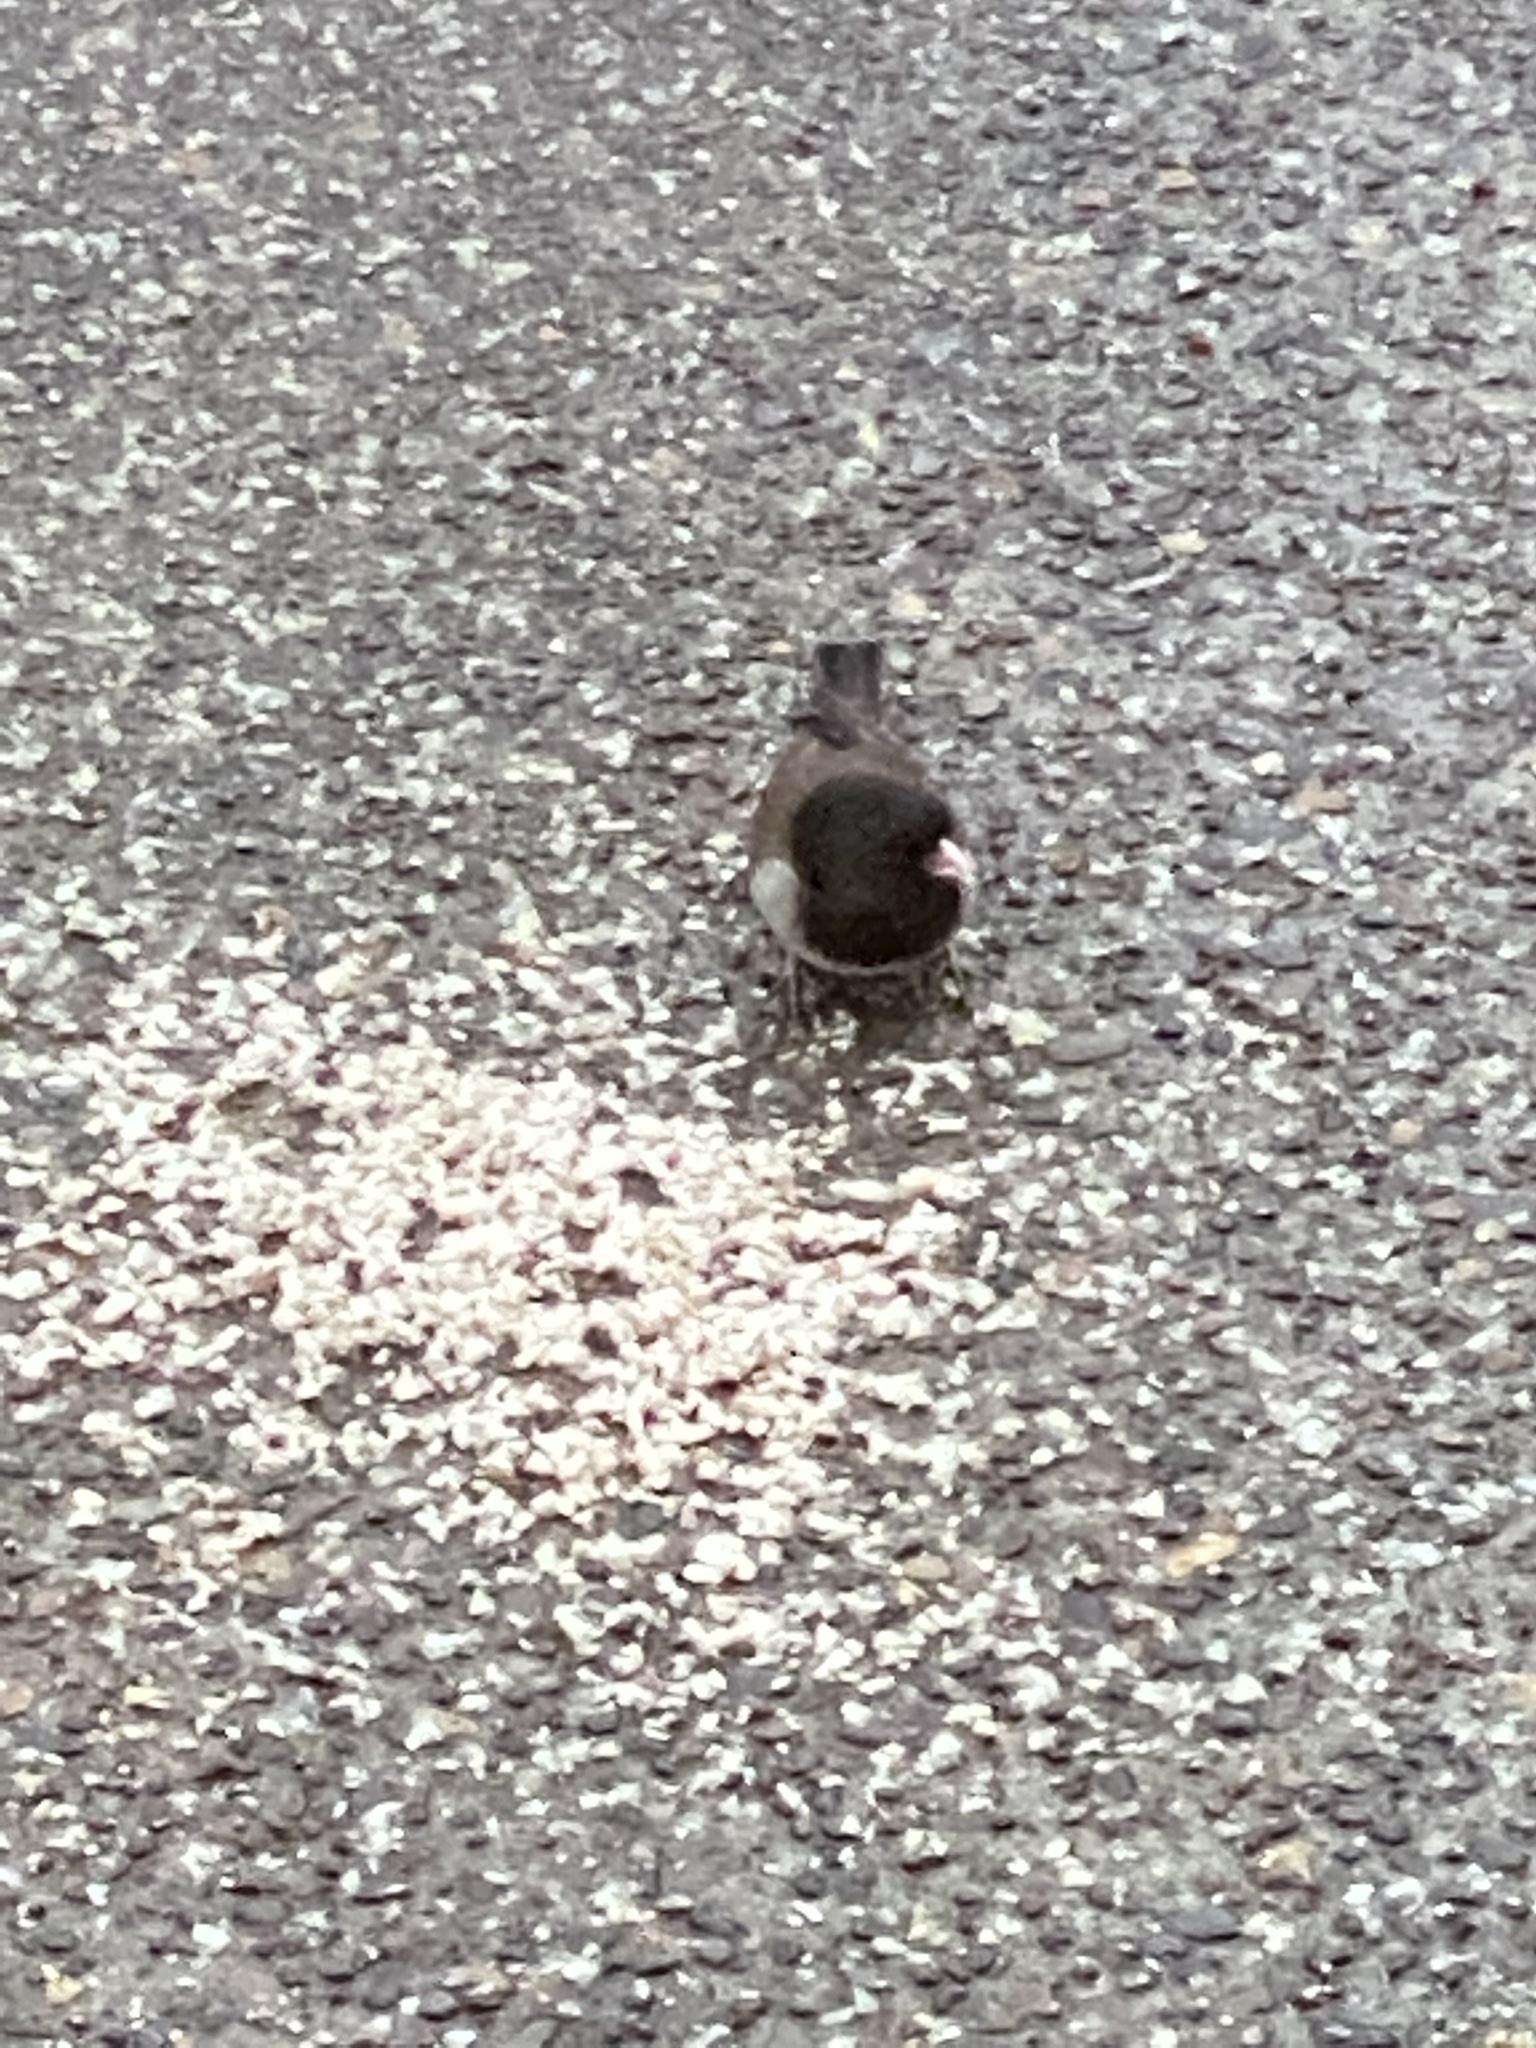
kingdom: Animalia
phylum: Chordata
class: Aves
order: Passeriformes
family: Passerellidae
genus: Junco
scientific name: Junco hyemalis
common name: Dark-eyed junco
